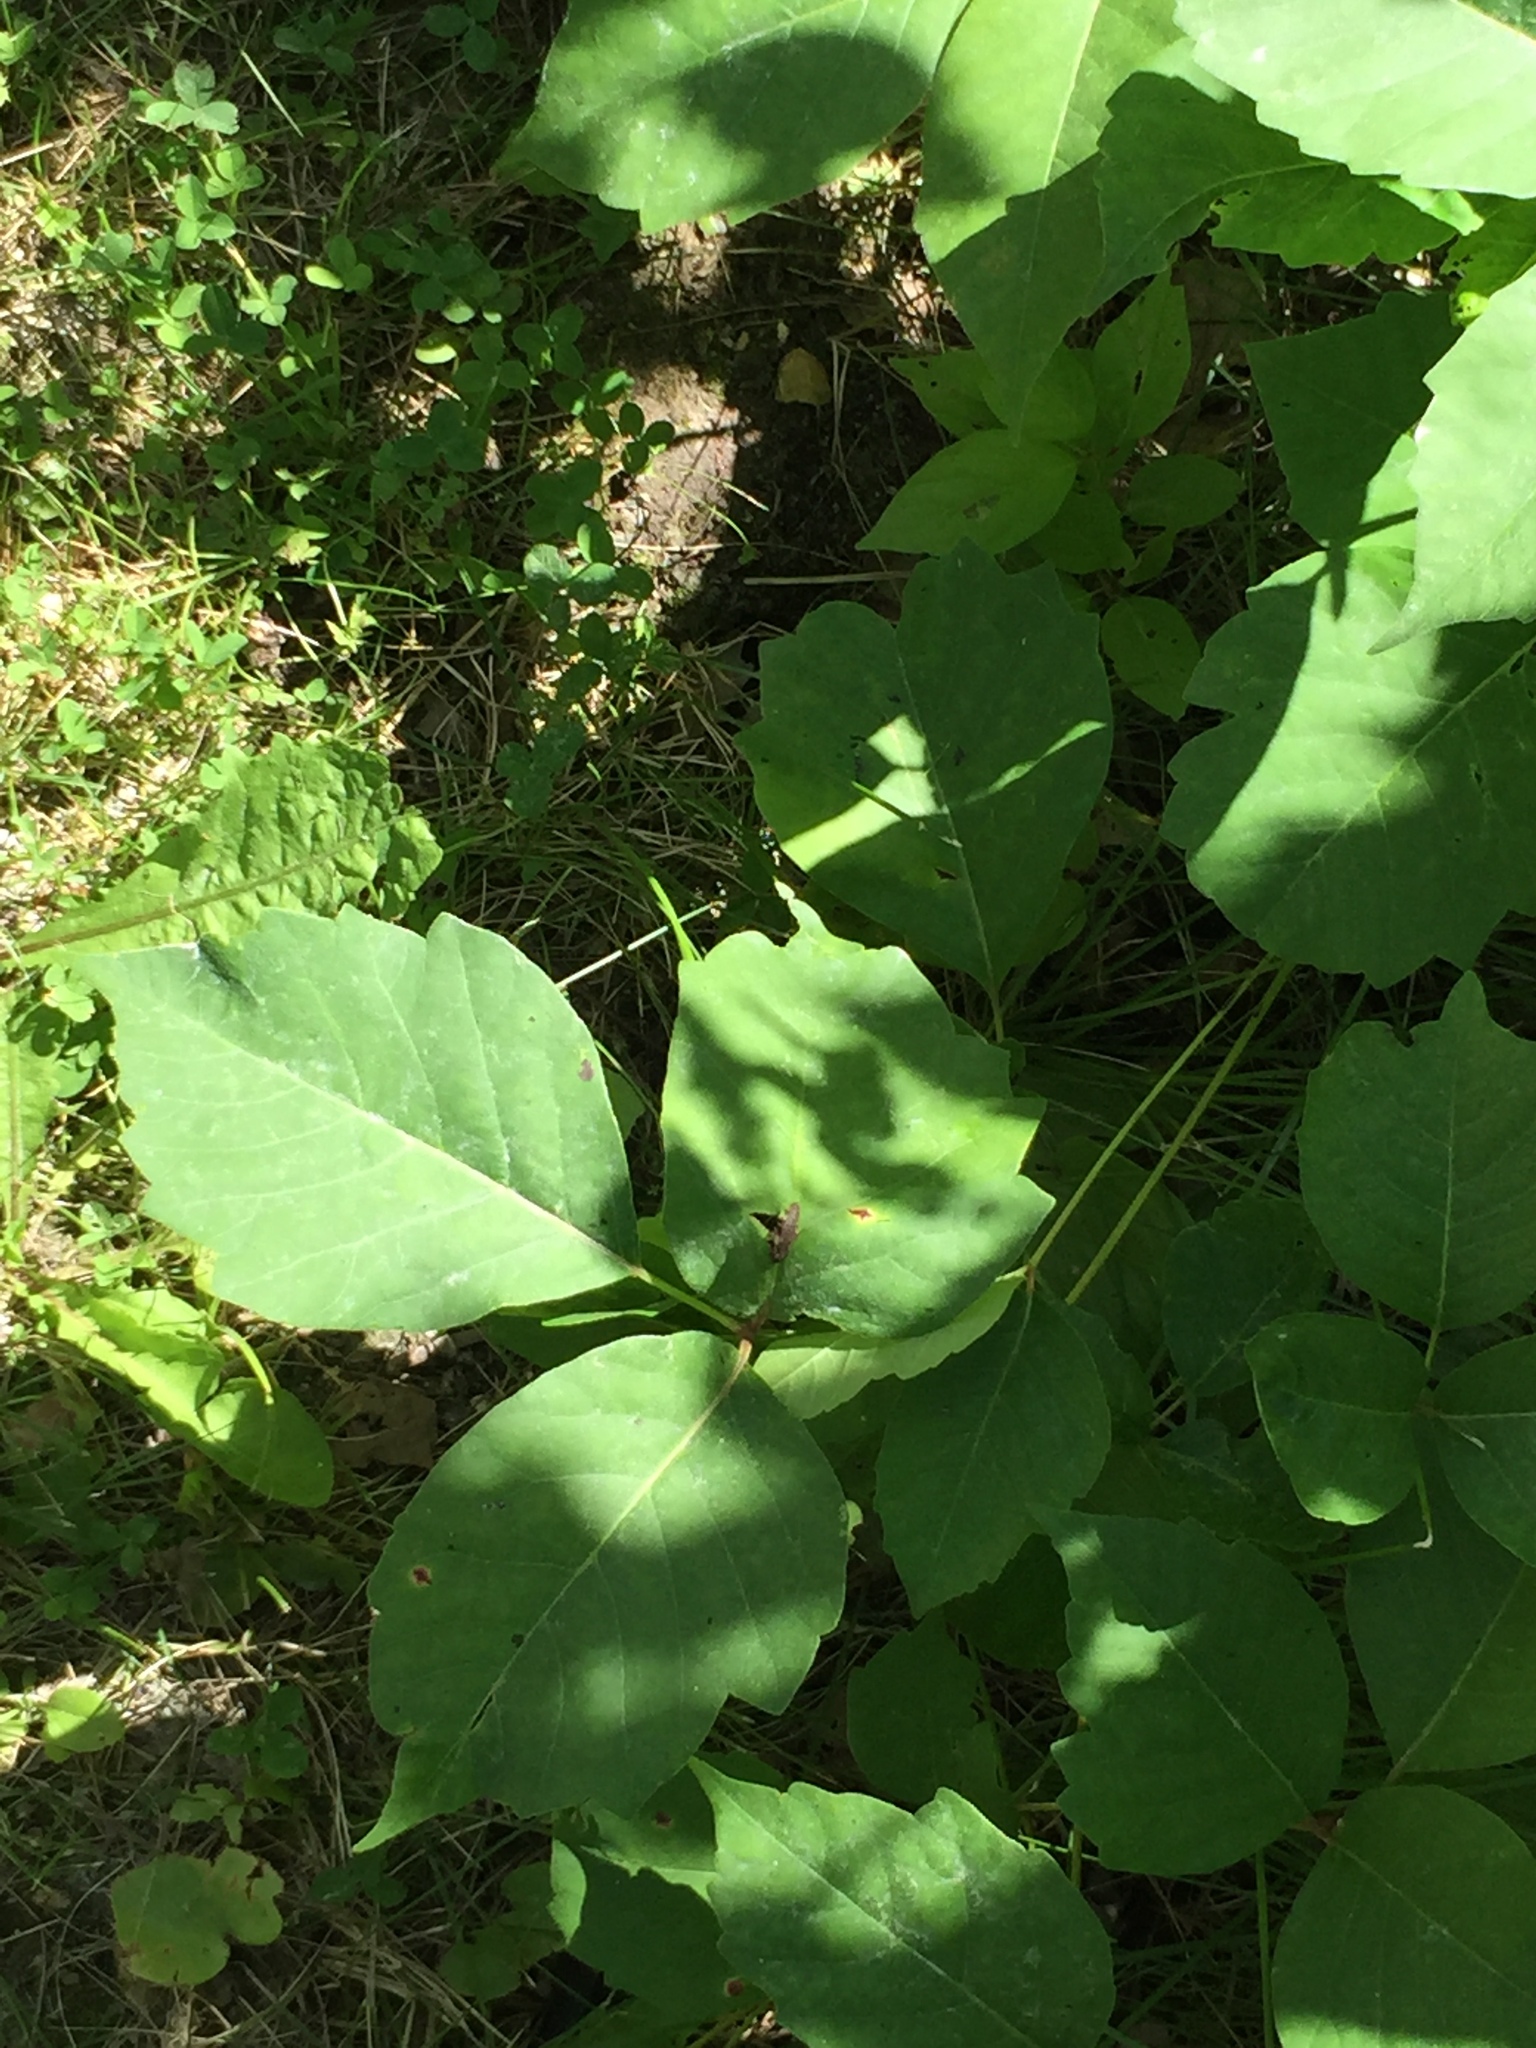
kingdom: Plantae
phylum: Tracheophyta
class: Magnoliopsida
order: Sapindales
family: Anacardiaceae
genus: Toxicodendron
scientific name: Toxicodendron rydbergii
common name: Rydberg's poison-ivy
